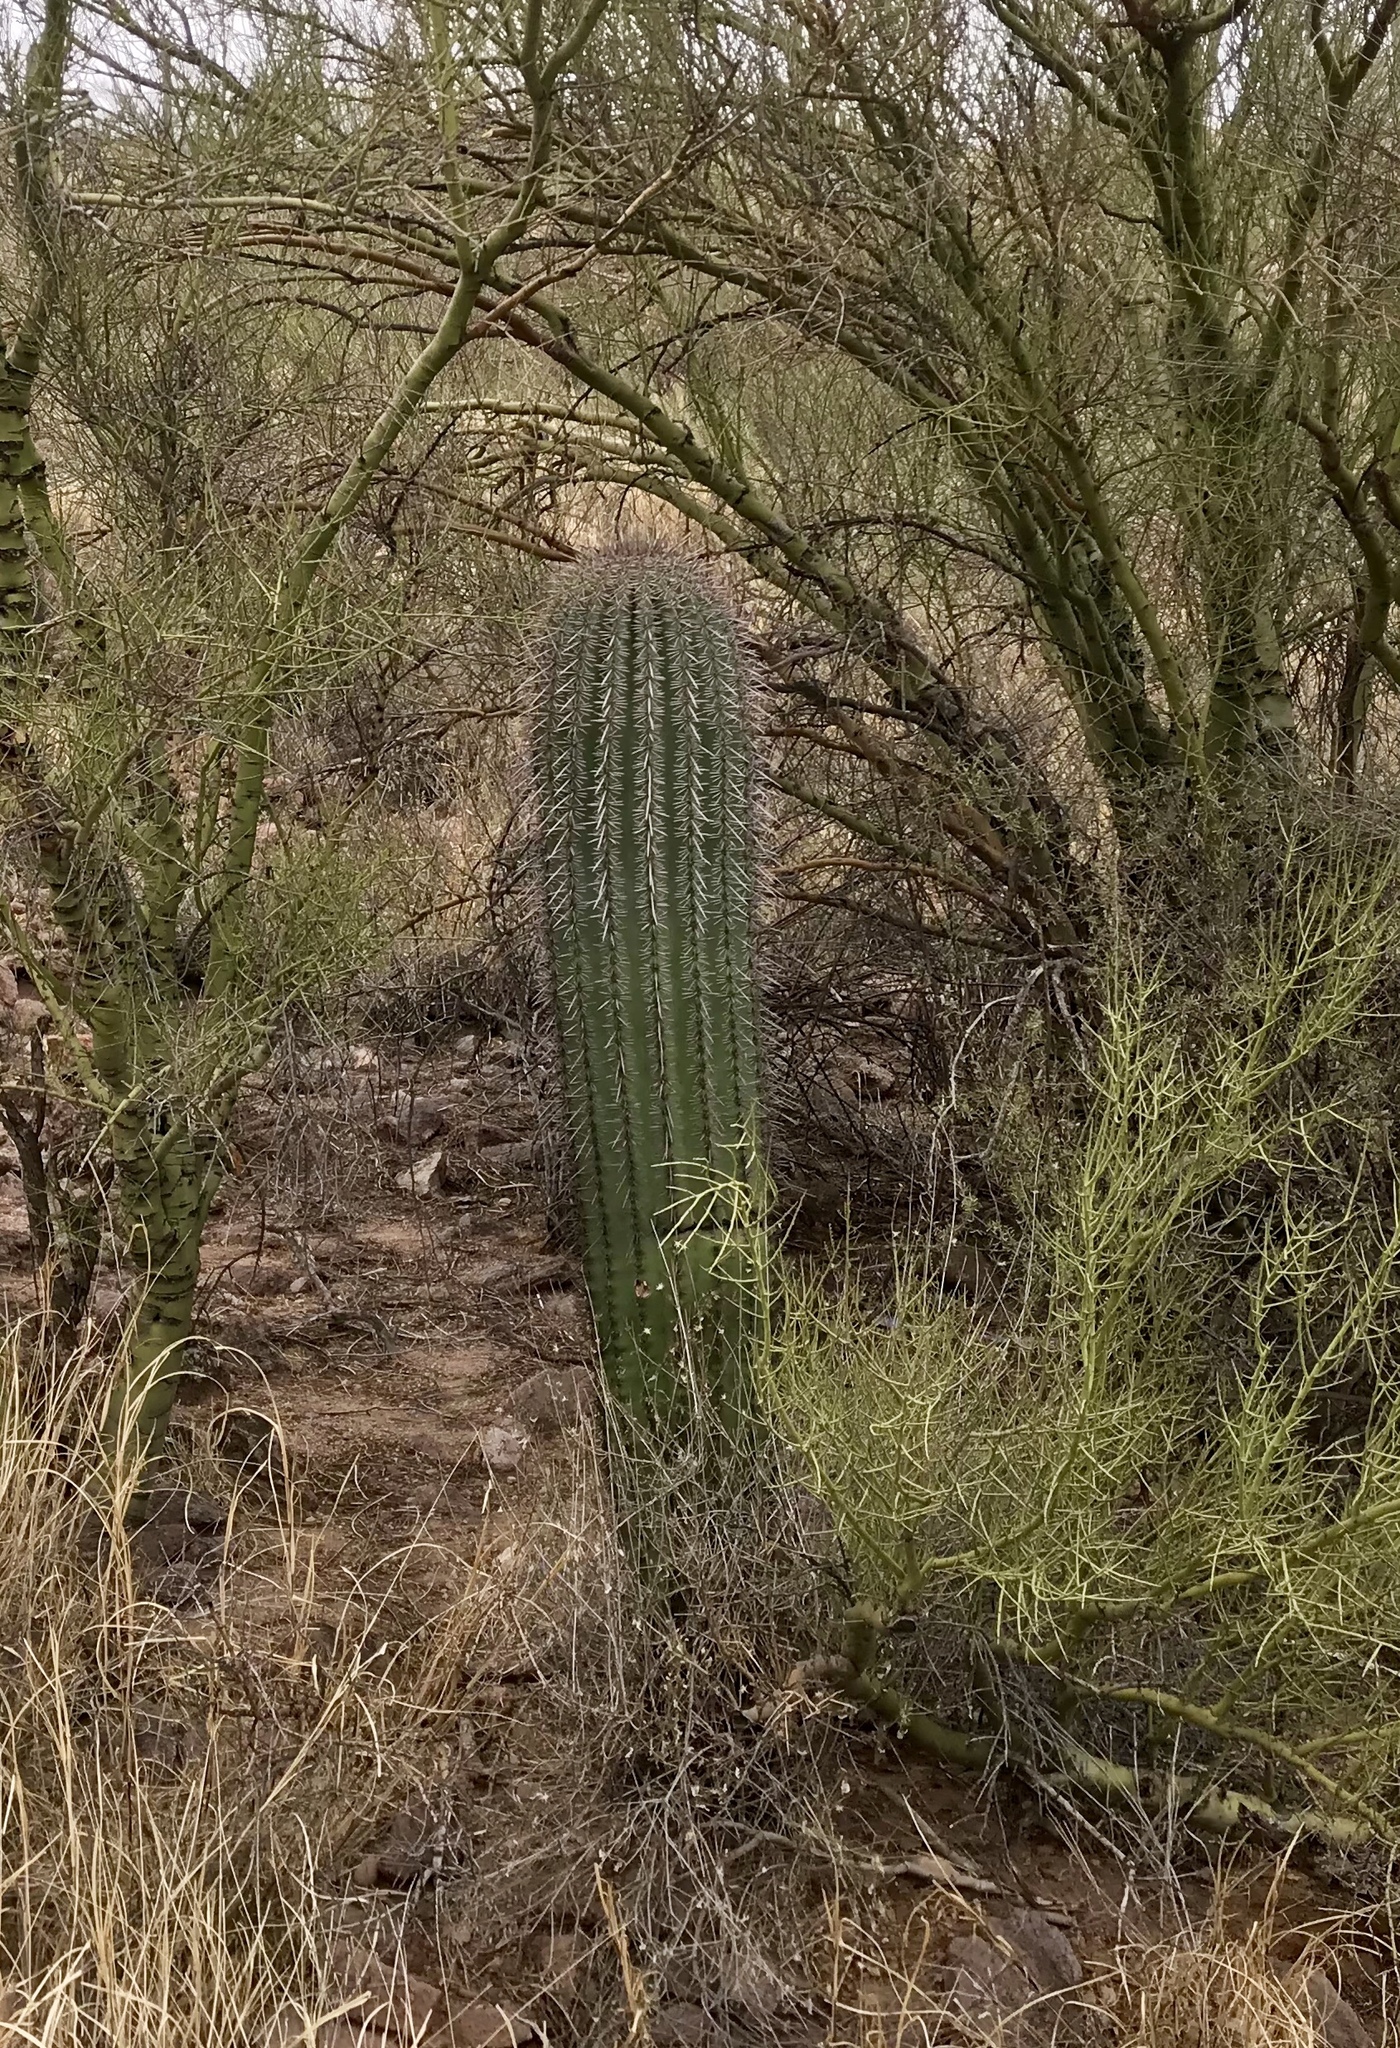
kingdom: Plantae
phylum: Tracheophyta
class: Magnoliopsida
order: Caryophyllales
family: Cactaceae
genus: Carnegiea
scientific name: Carnegiea gigantea
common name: Saguaro
